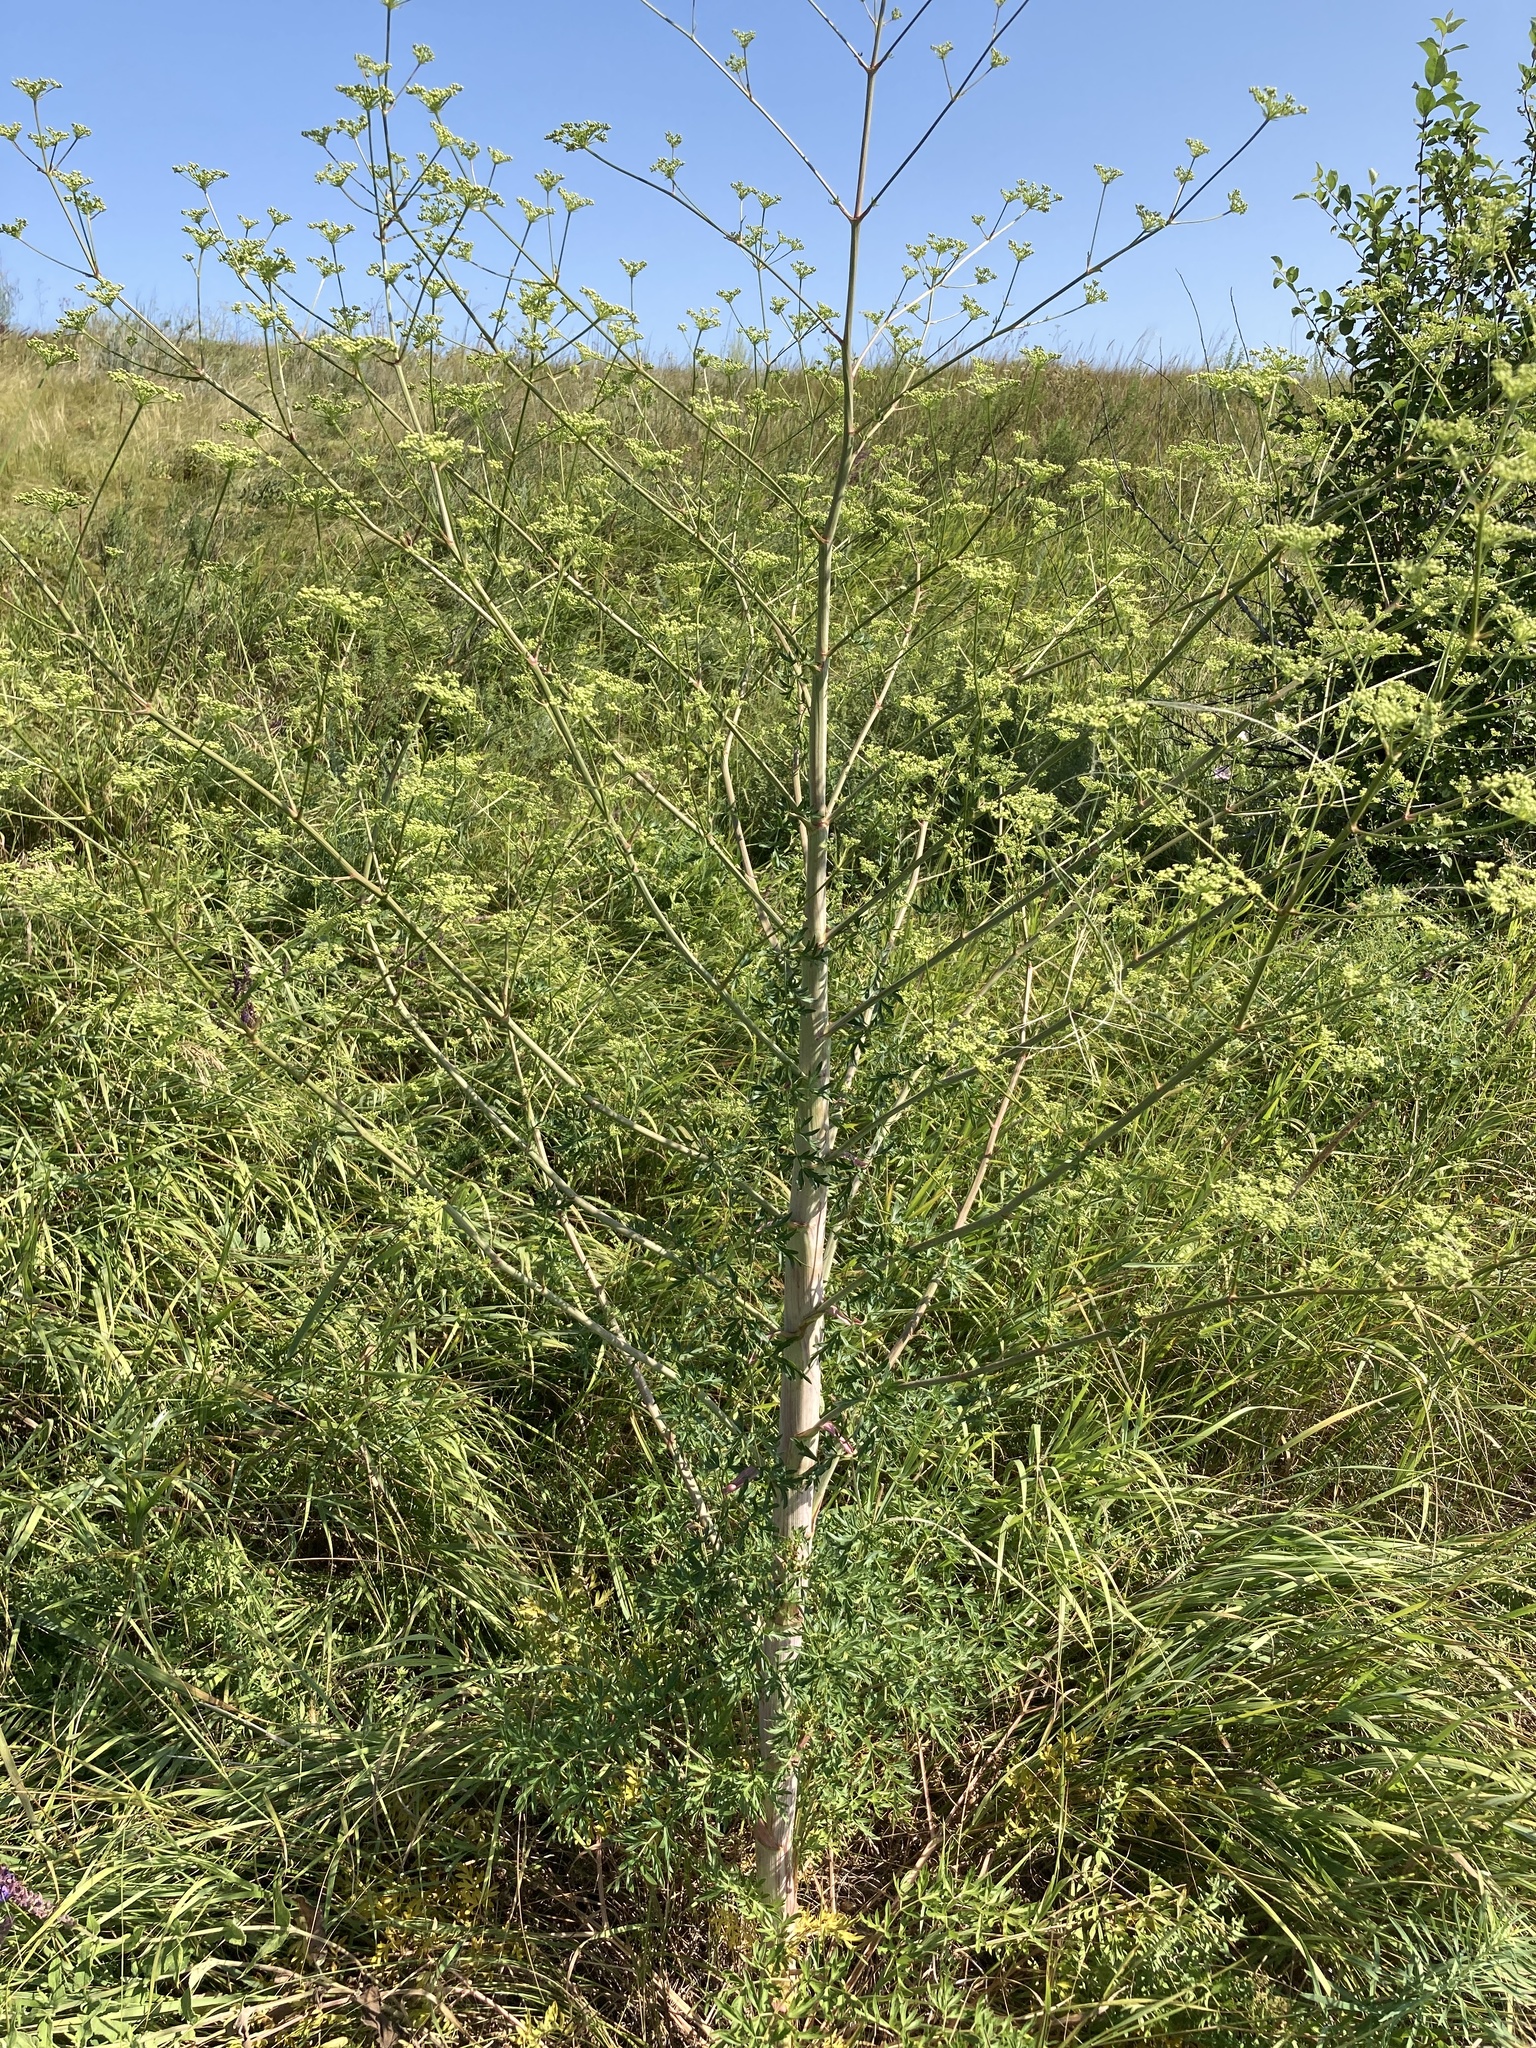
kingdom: Plantae
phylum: Tracheophyta
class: Magnoliopsida
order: Apiales
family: Apiaceae
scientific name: Apiaceae
